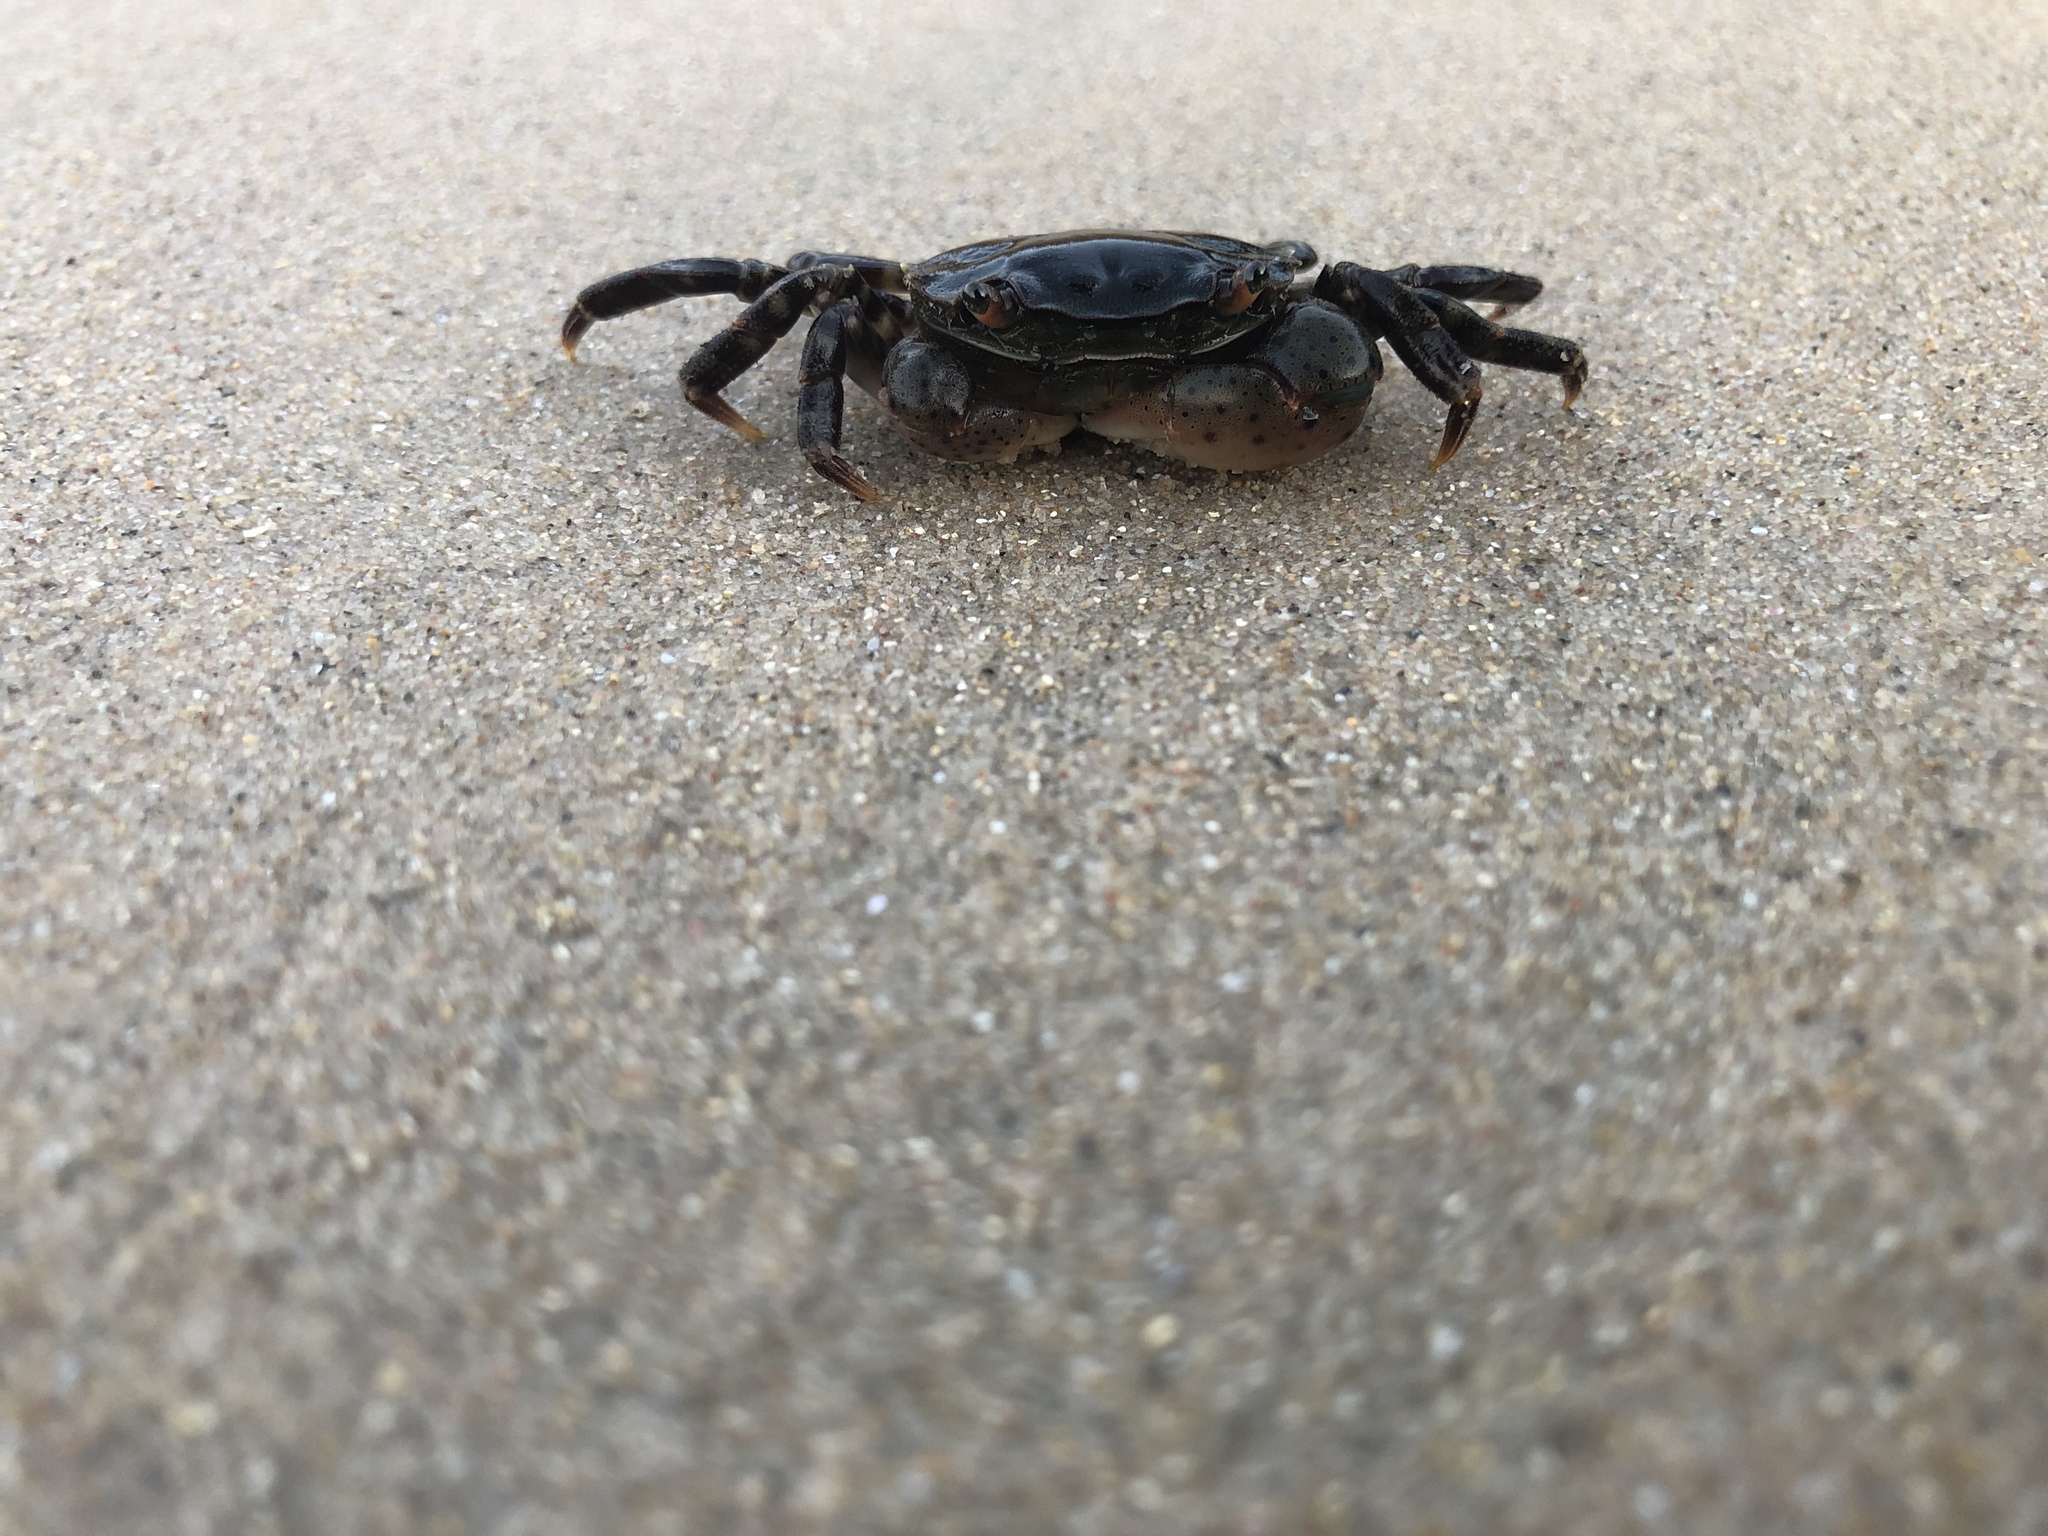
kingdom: Animalia
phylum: Arthropoda
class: Malacostraca
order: Decapoda
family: Varunidae
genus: Hemigrapsus
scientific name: Hemigrapsus sanguineus
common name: Asian shore crab
